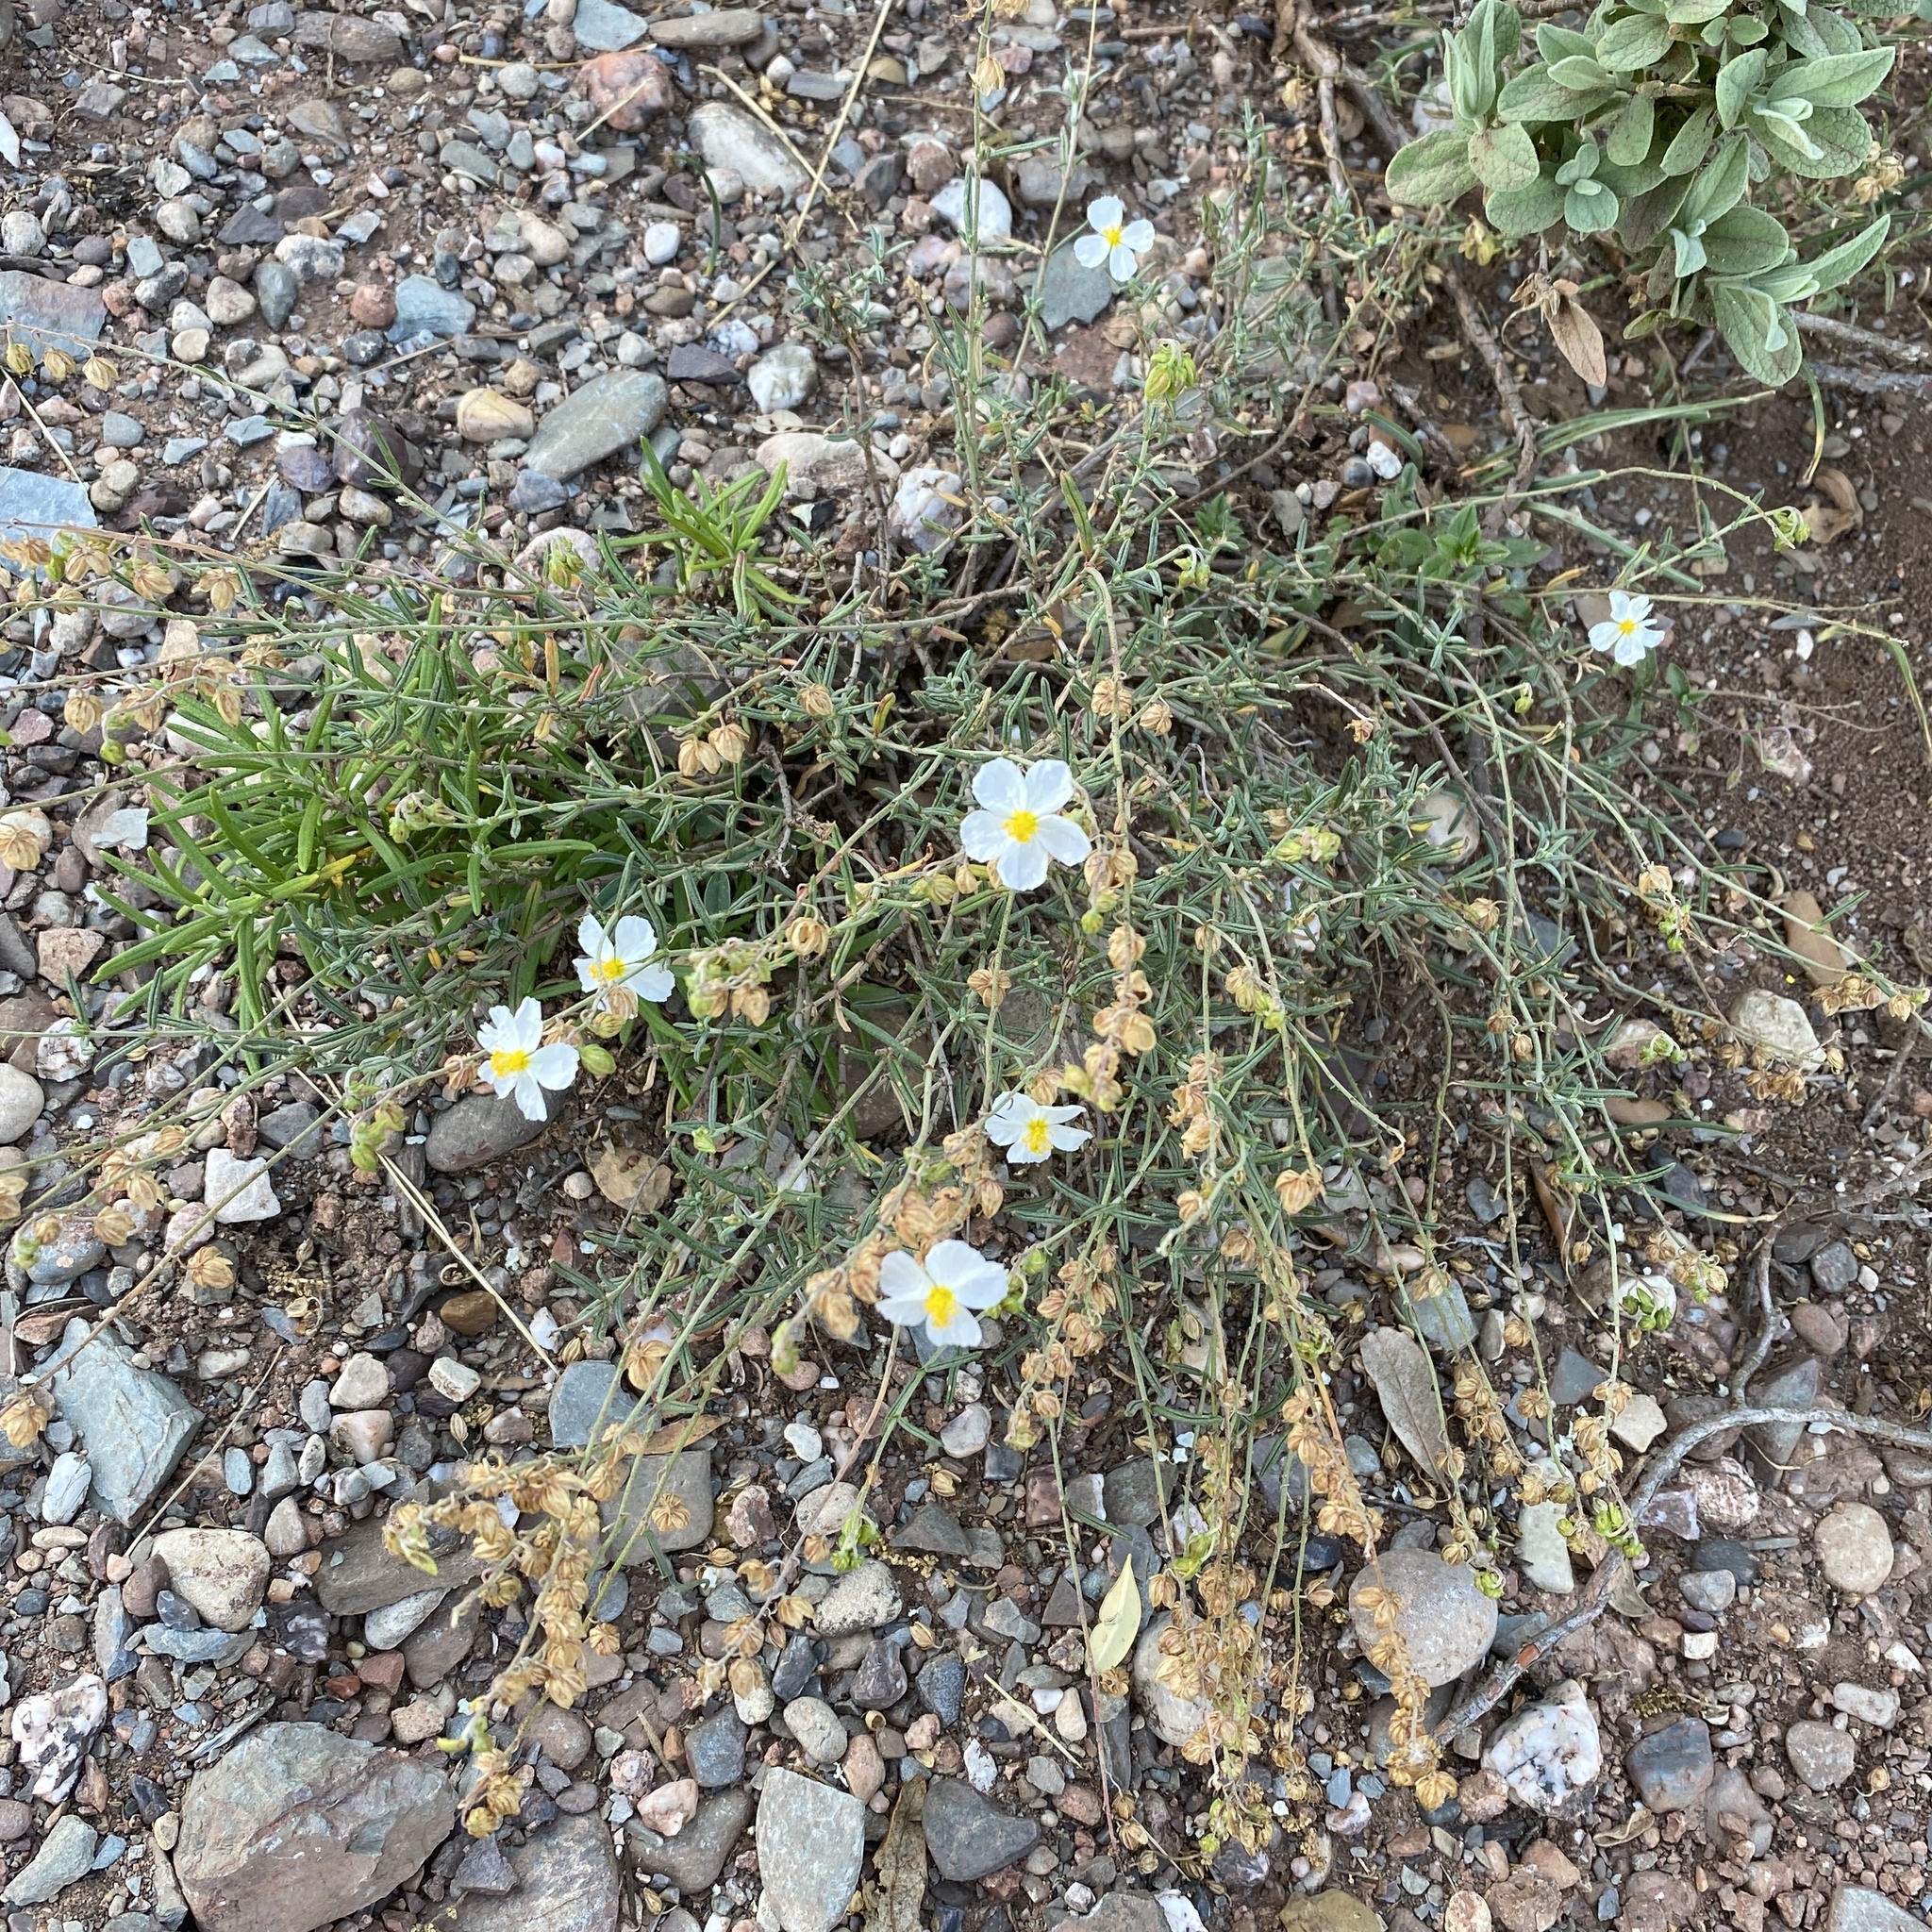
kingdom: Plantae
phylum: Tracheophyta
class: Magnoliopsida
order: Malvales
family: Cistaceae
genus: Helianthemum
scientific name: Helianthemum apenninum
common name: White rock-rose
